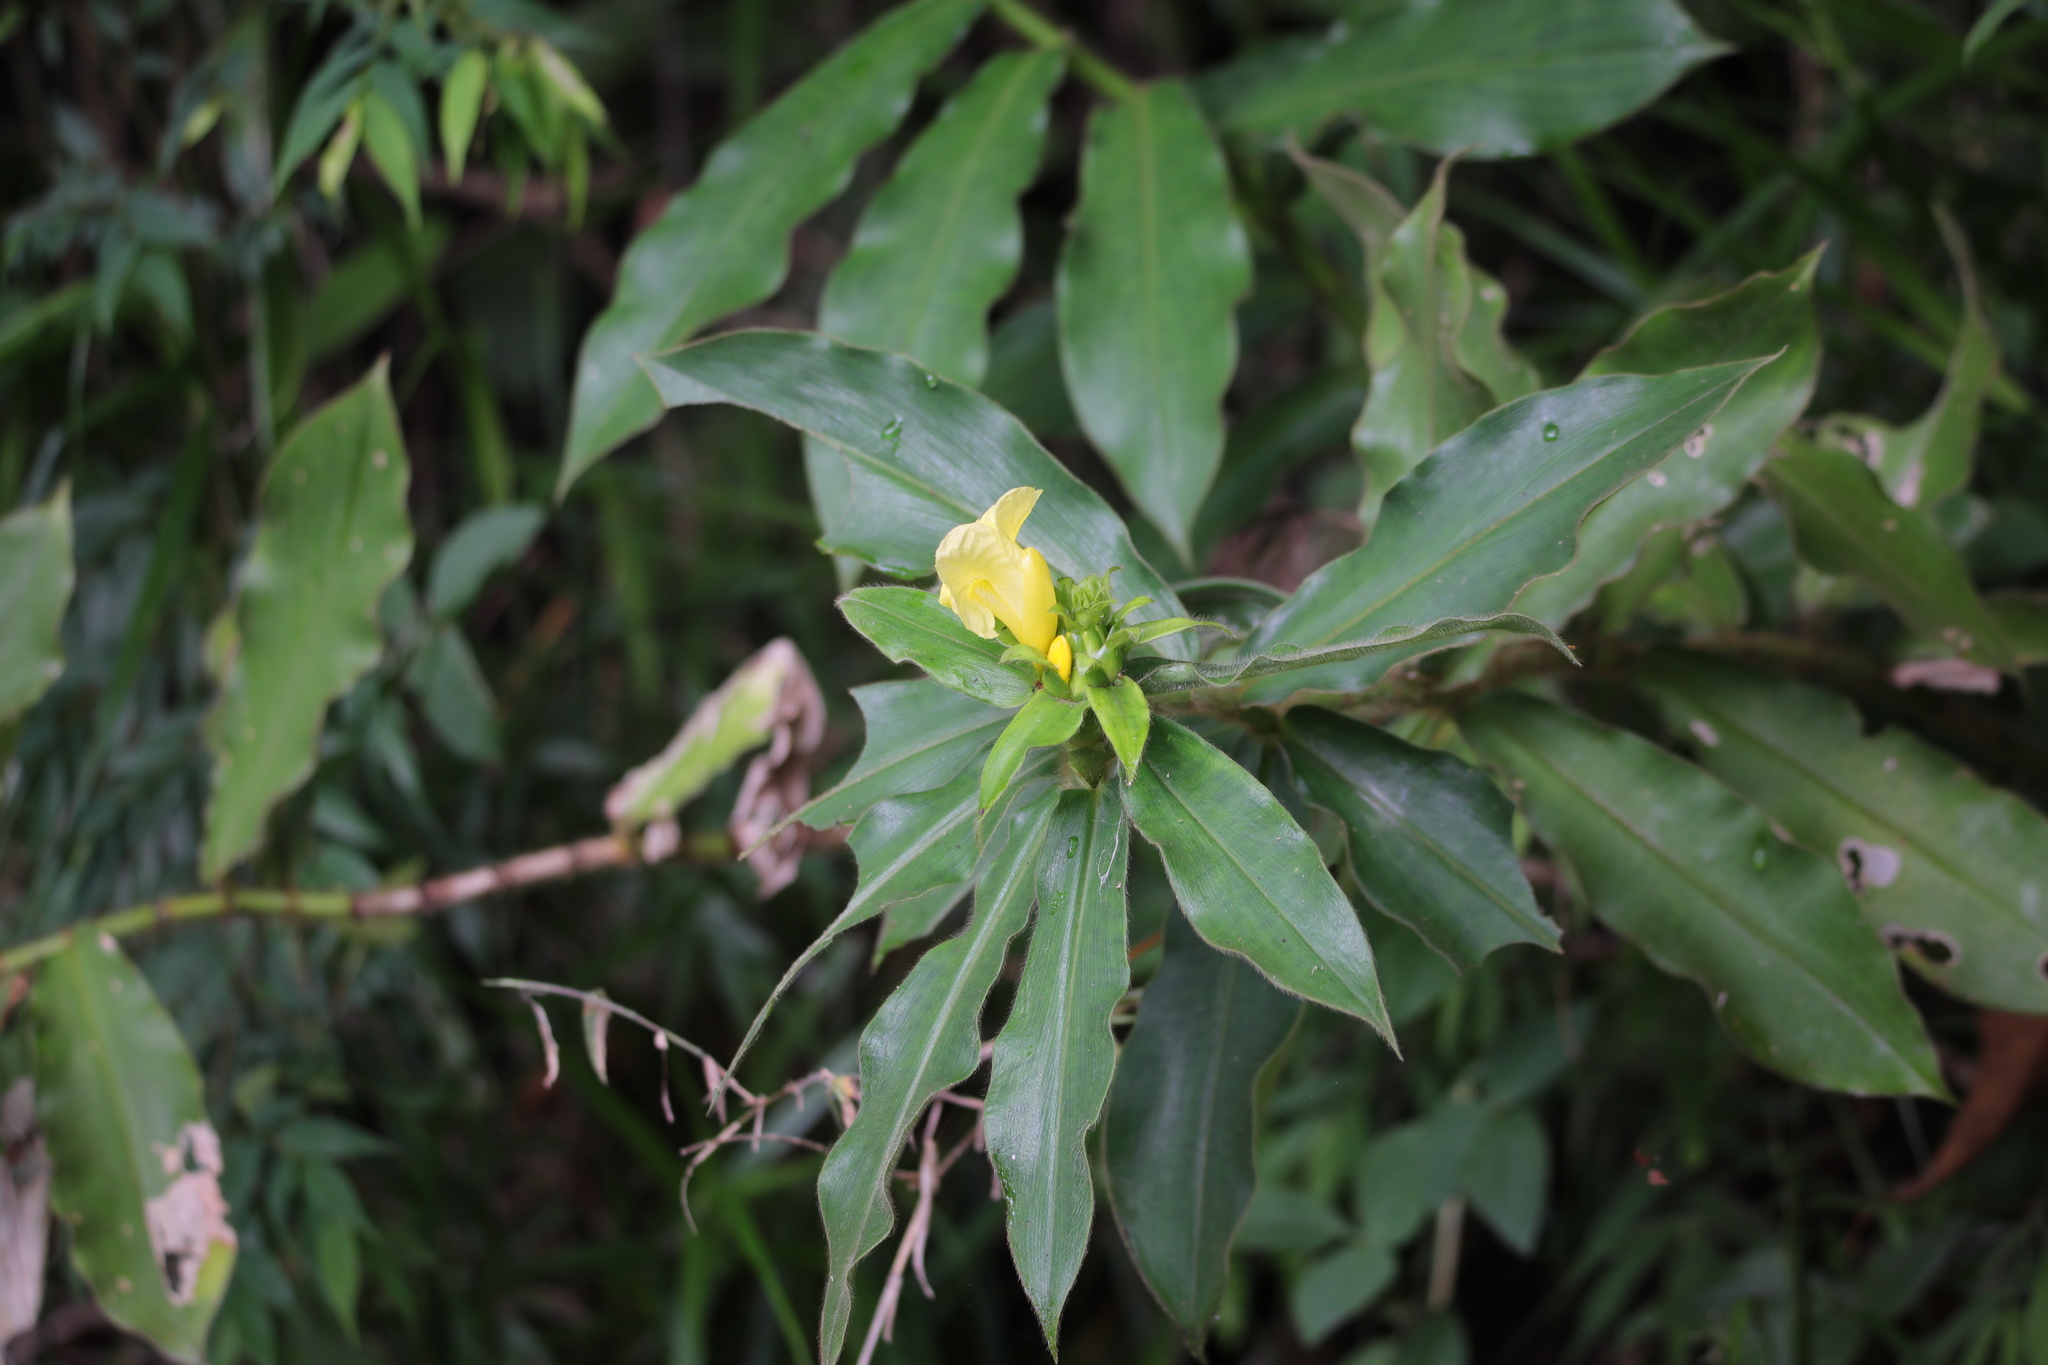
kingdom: Plantae
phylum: Tracheophyta
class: Liliopsida
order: Zingiberales
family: Costaceae
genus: Costus
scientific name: Costus villosissimus
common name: Spiral flag
